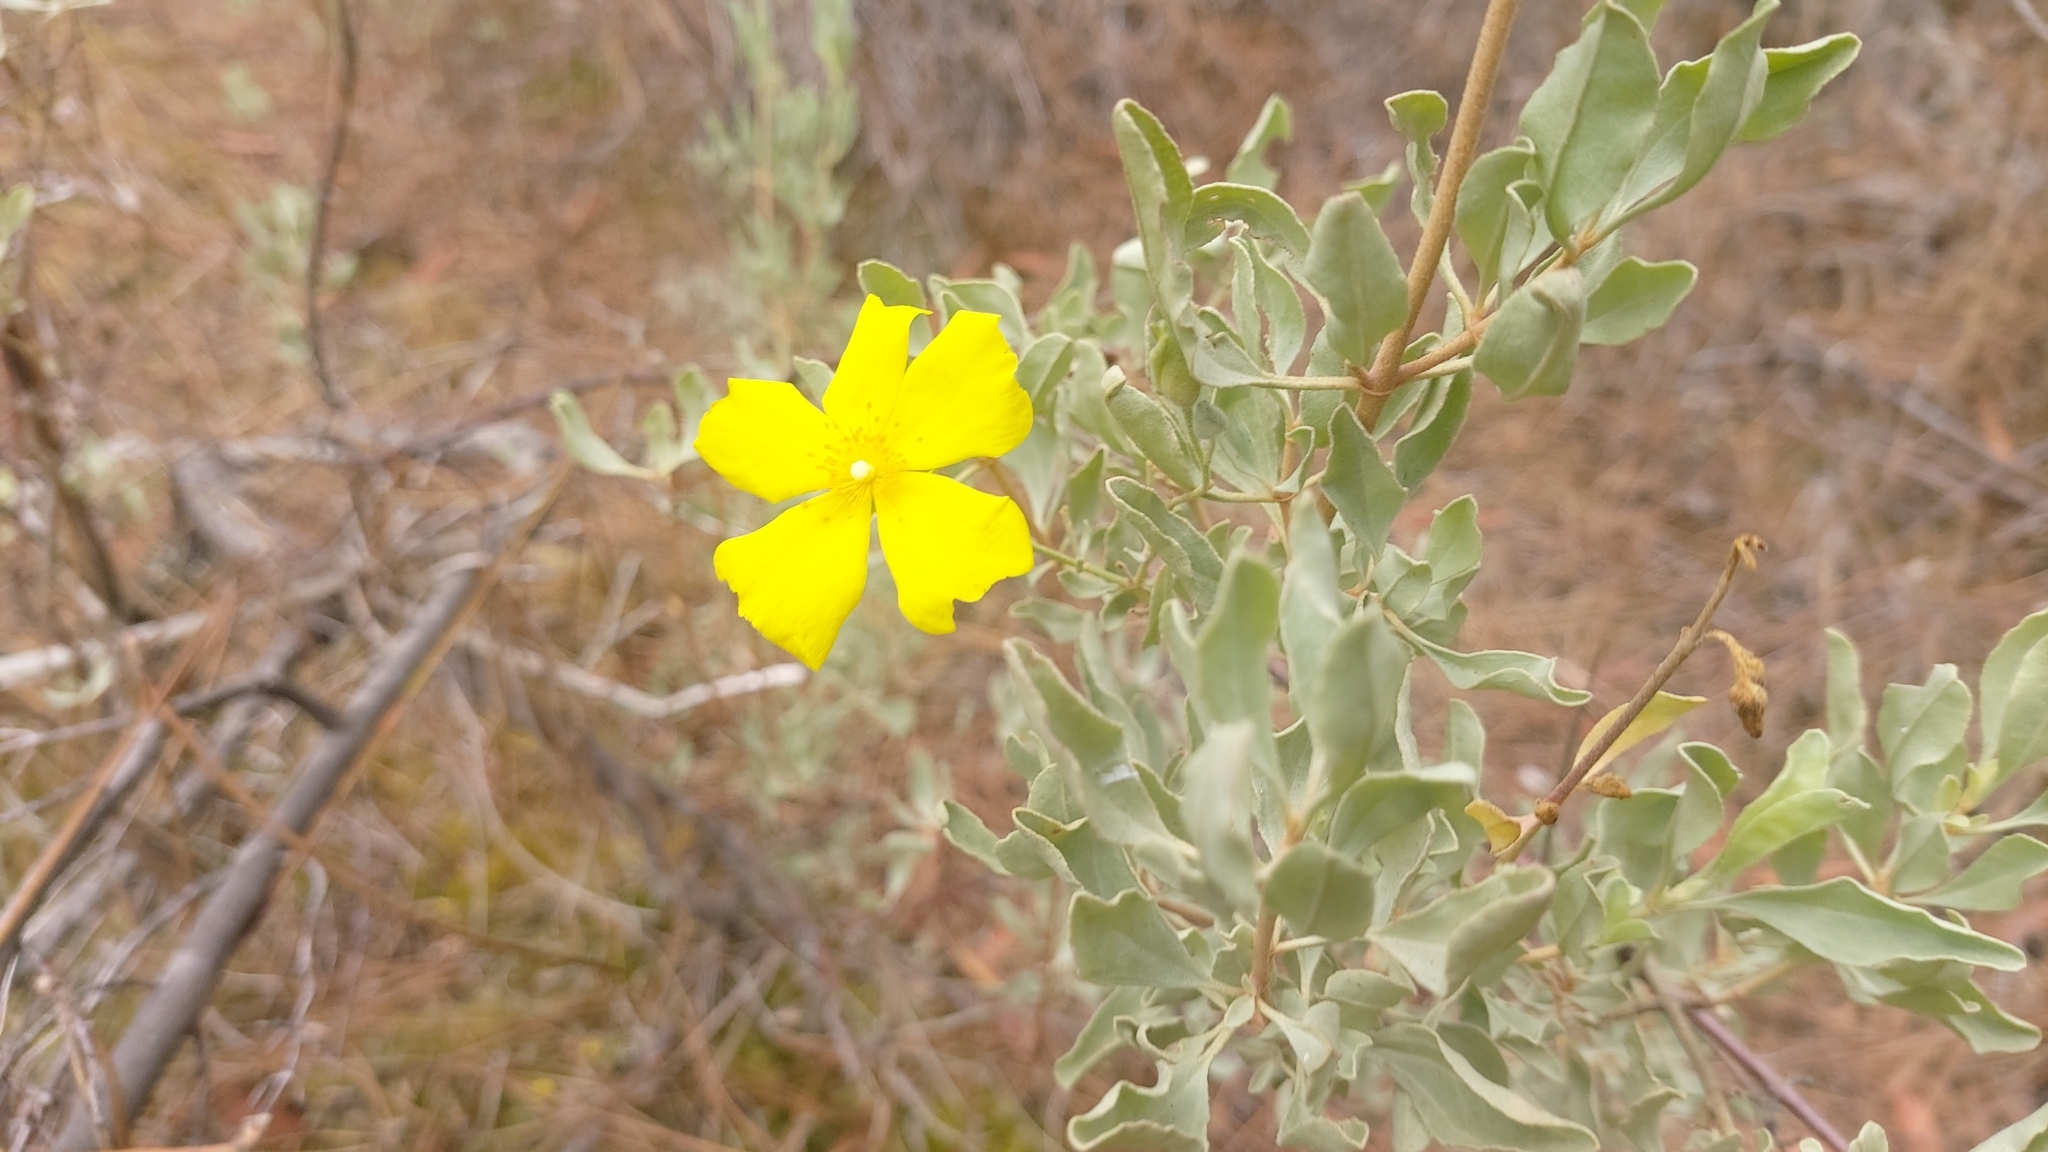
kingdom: Plantae
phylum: Tracheophyta
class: Magnoliopsida
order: Malvales
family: Cistaceae
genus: Halimium
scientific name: Halimium halimifolium
